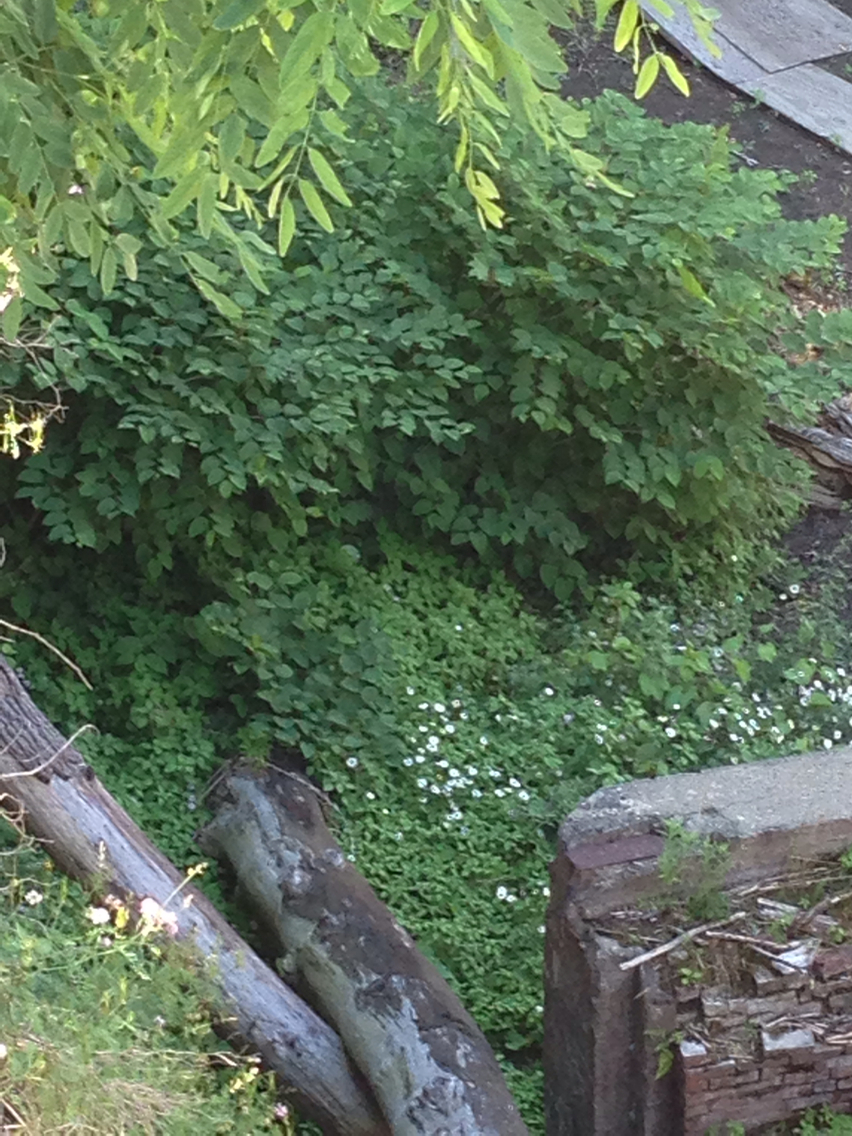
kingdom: Plantae
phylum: Tracheophyta
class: Magnoliopsida
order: Caryophyllales
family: Polygonaceae
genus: Reynoutria
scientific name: Reynoutria japonica
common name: Japanese knotweed
